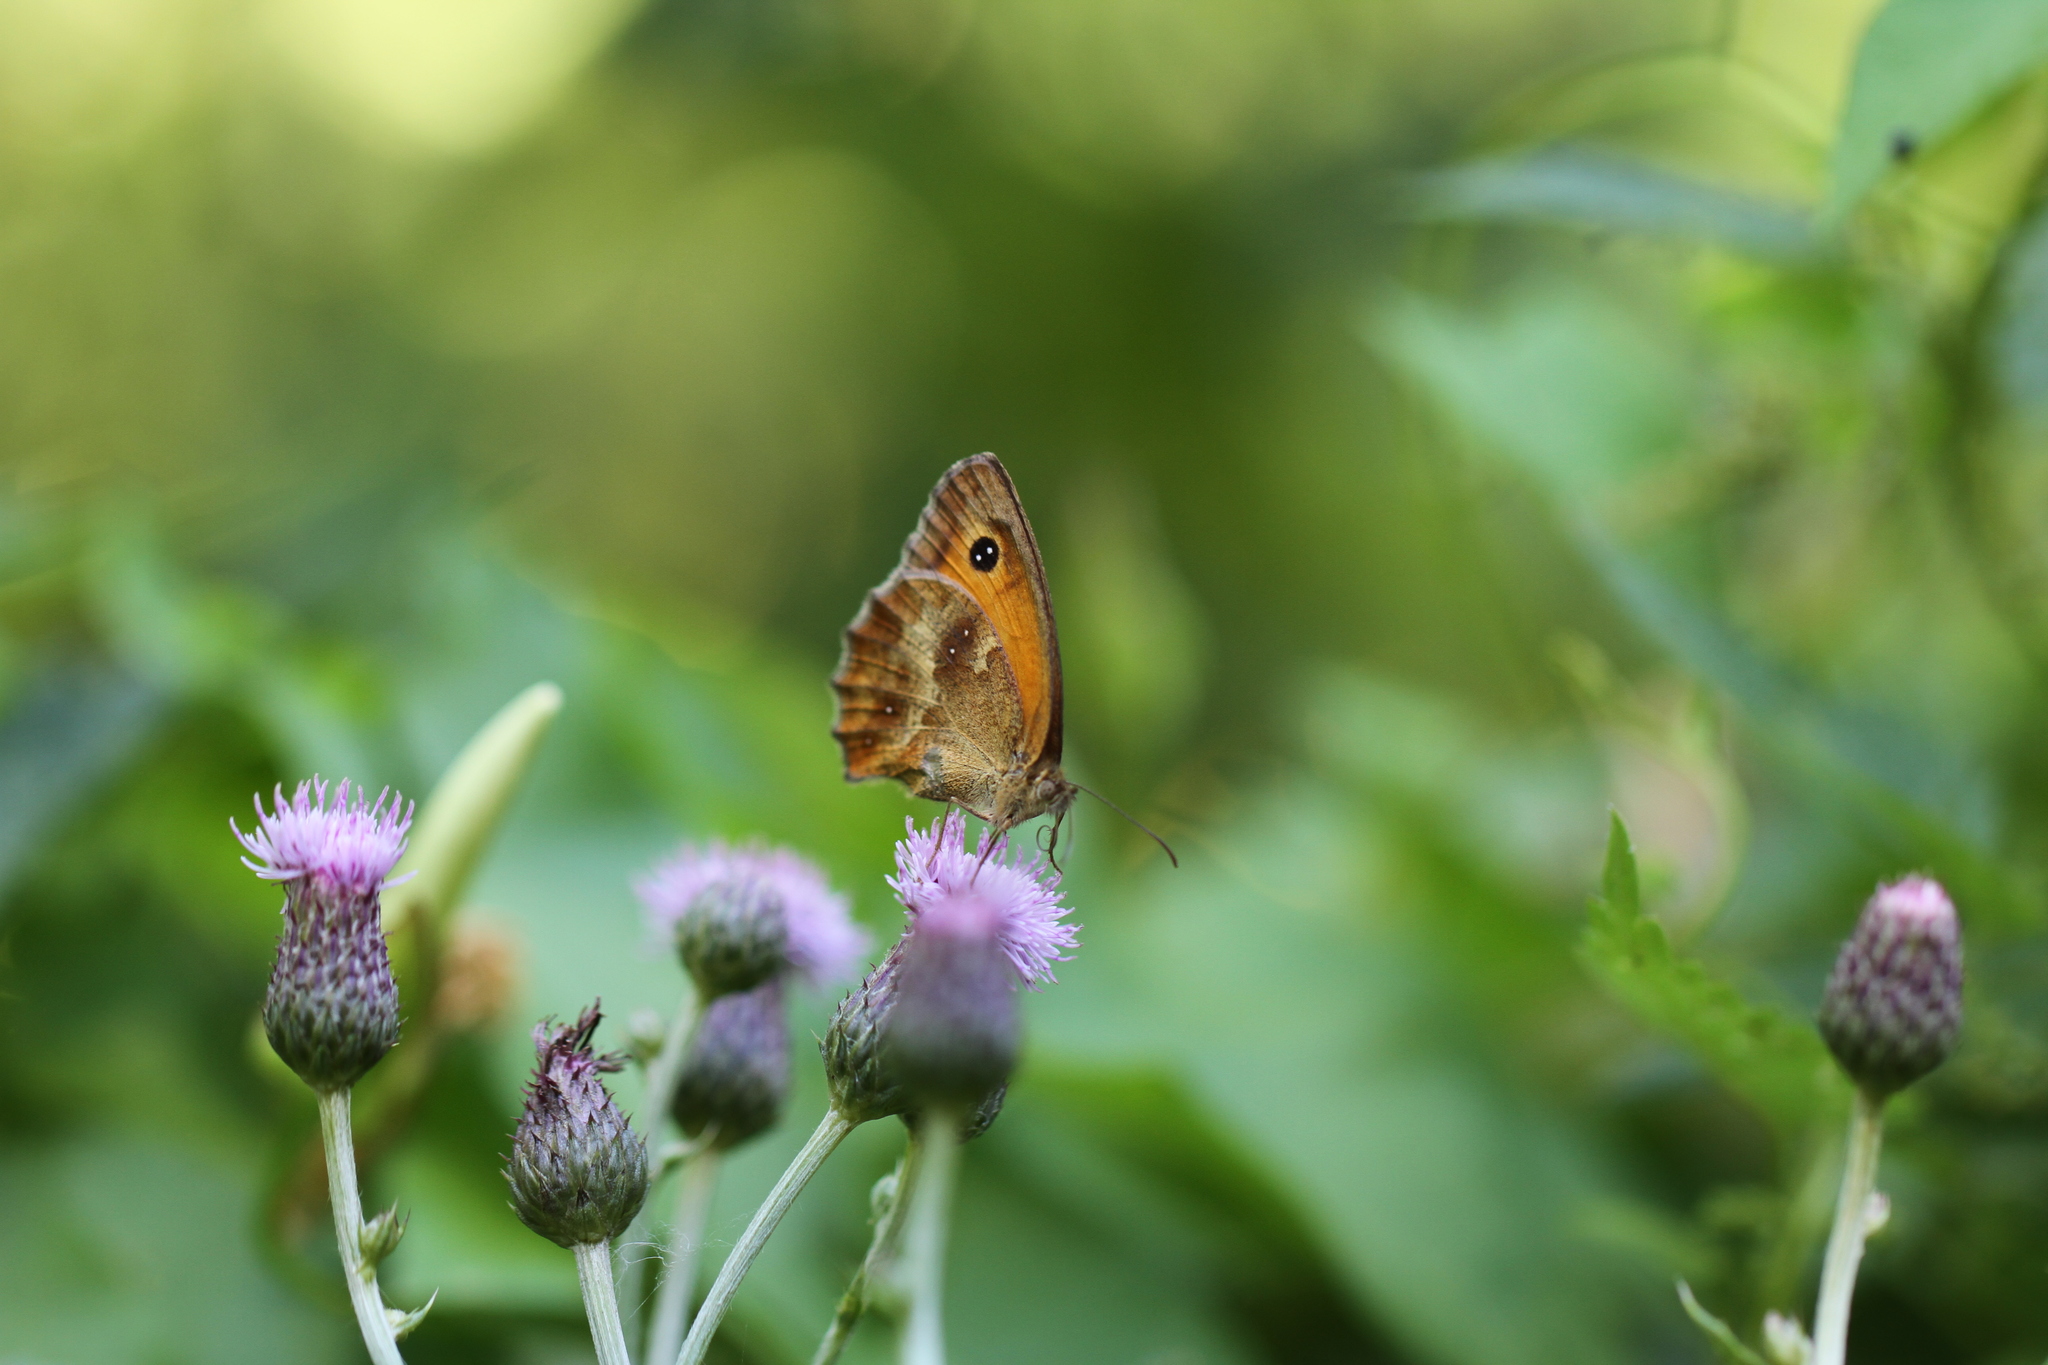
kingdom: Animalia
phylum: Arthropoda
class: Insecta
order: Lepidoptera
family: Nymphalidae
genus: Pyronia
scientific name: Pyronia tithonus
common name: Gatekeeper
